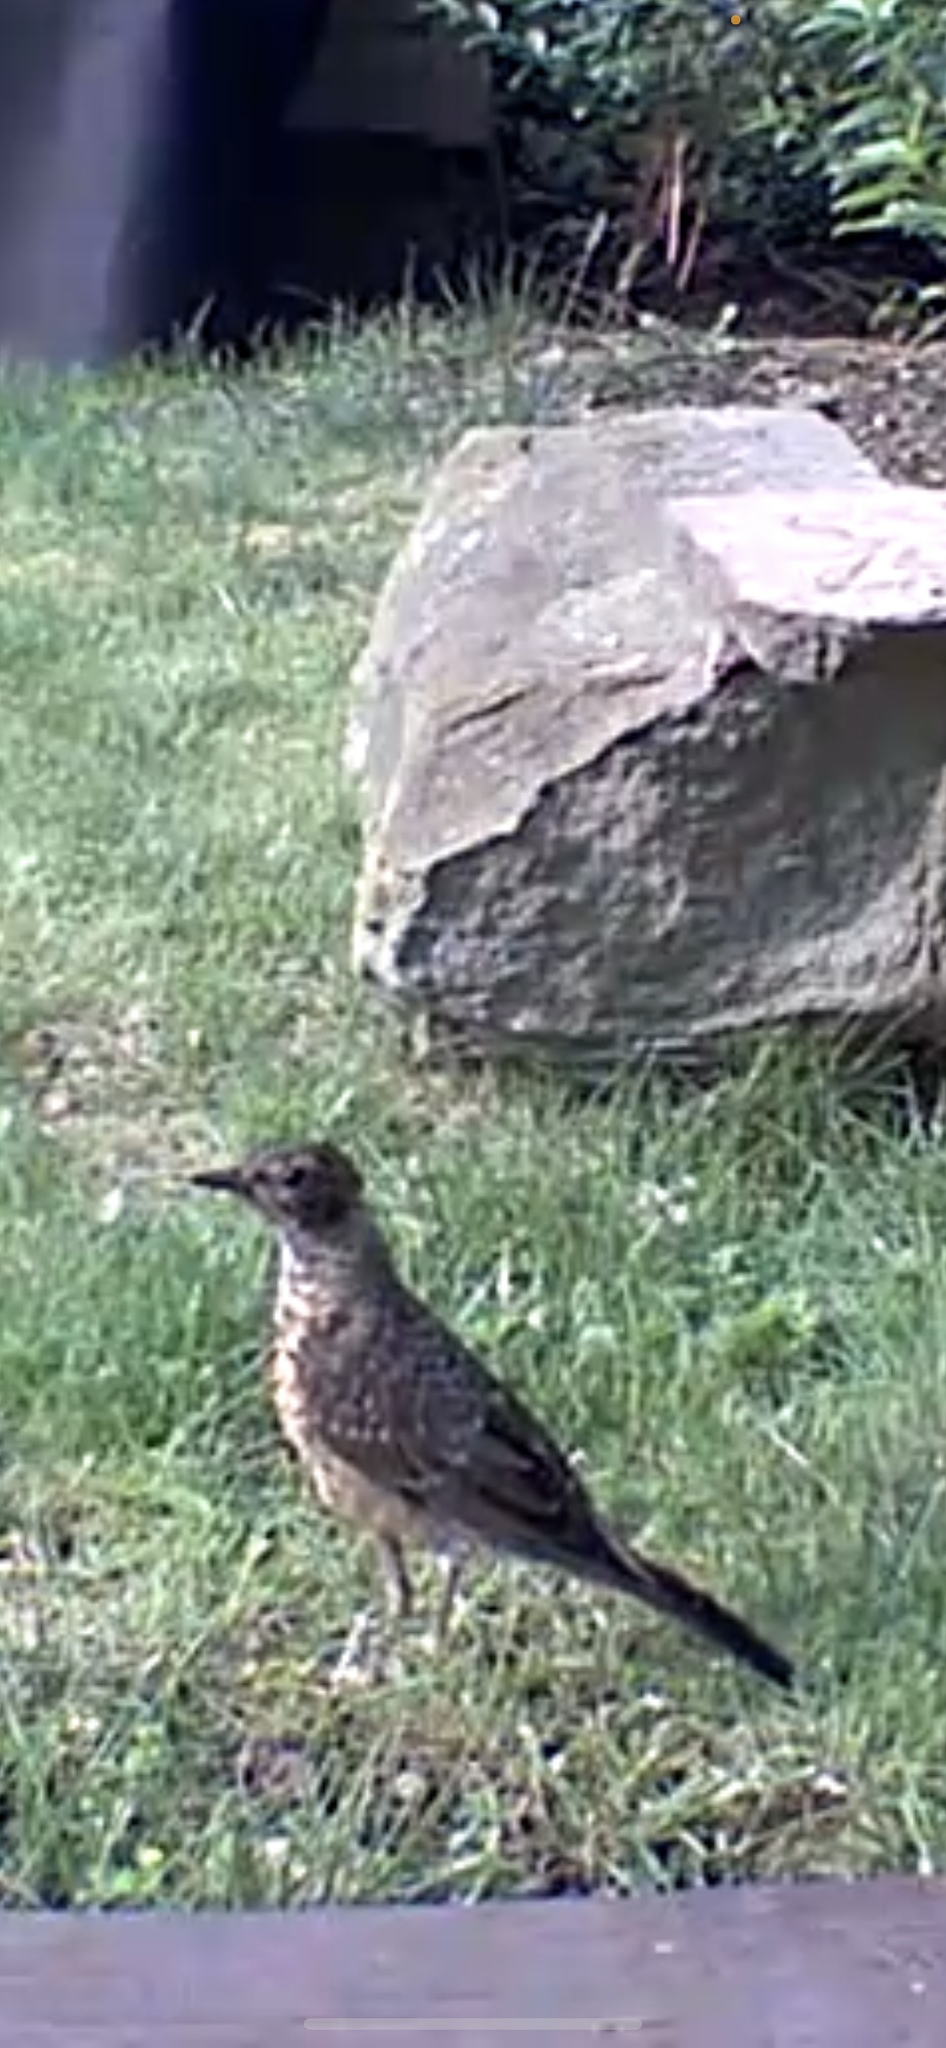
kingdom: Animalia
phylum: Chordata
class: Aves
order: Passeriformes
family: Turdidae
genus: Turdus
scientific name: Turdus migratorius
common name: American robin
